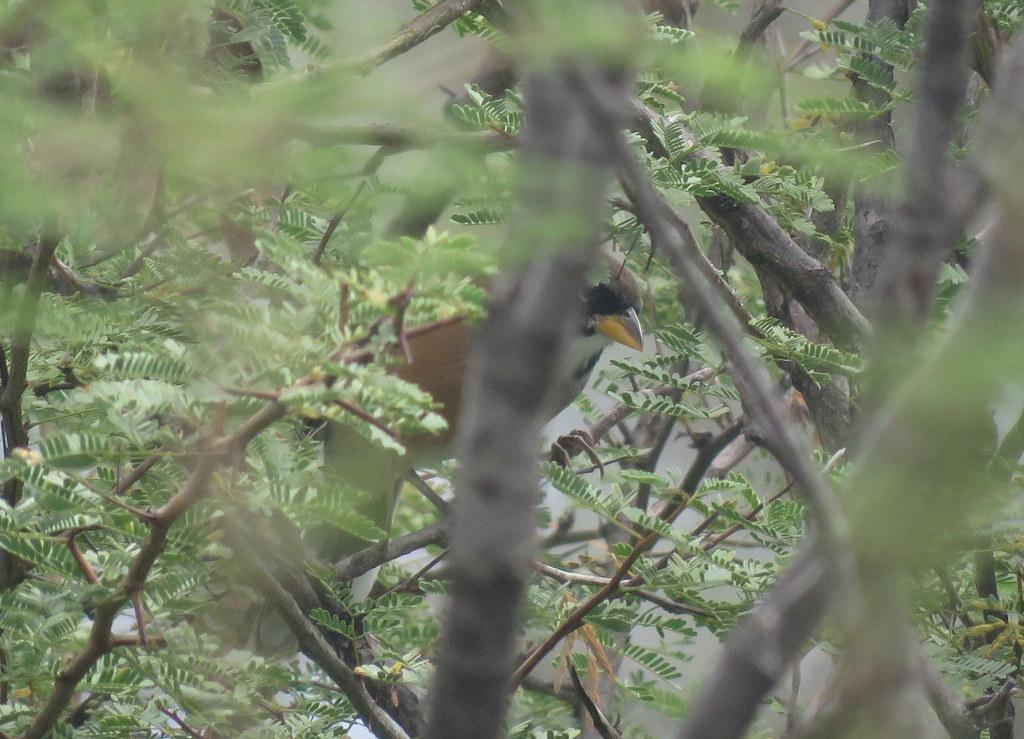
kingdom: Animalia
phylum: Chordata
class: Aves
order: Passeriformes
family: Thraupidae
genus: Saltatricula
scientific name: Saltatricula multicolor
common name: Many-colored chaco finch
